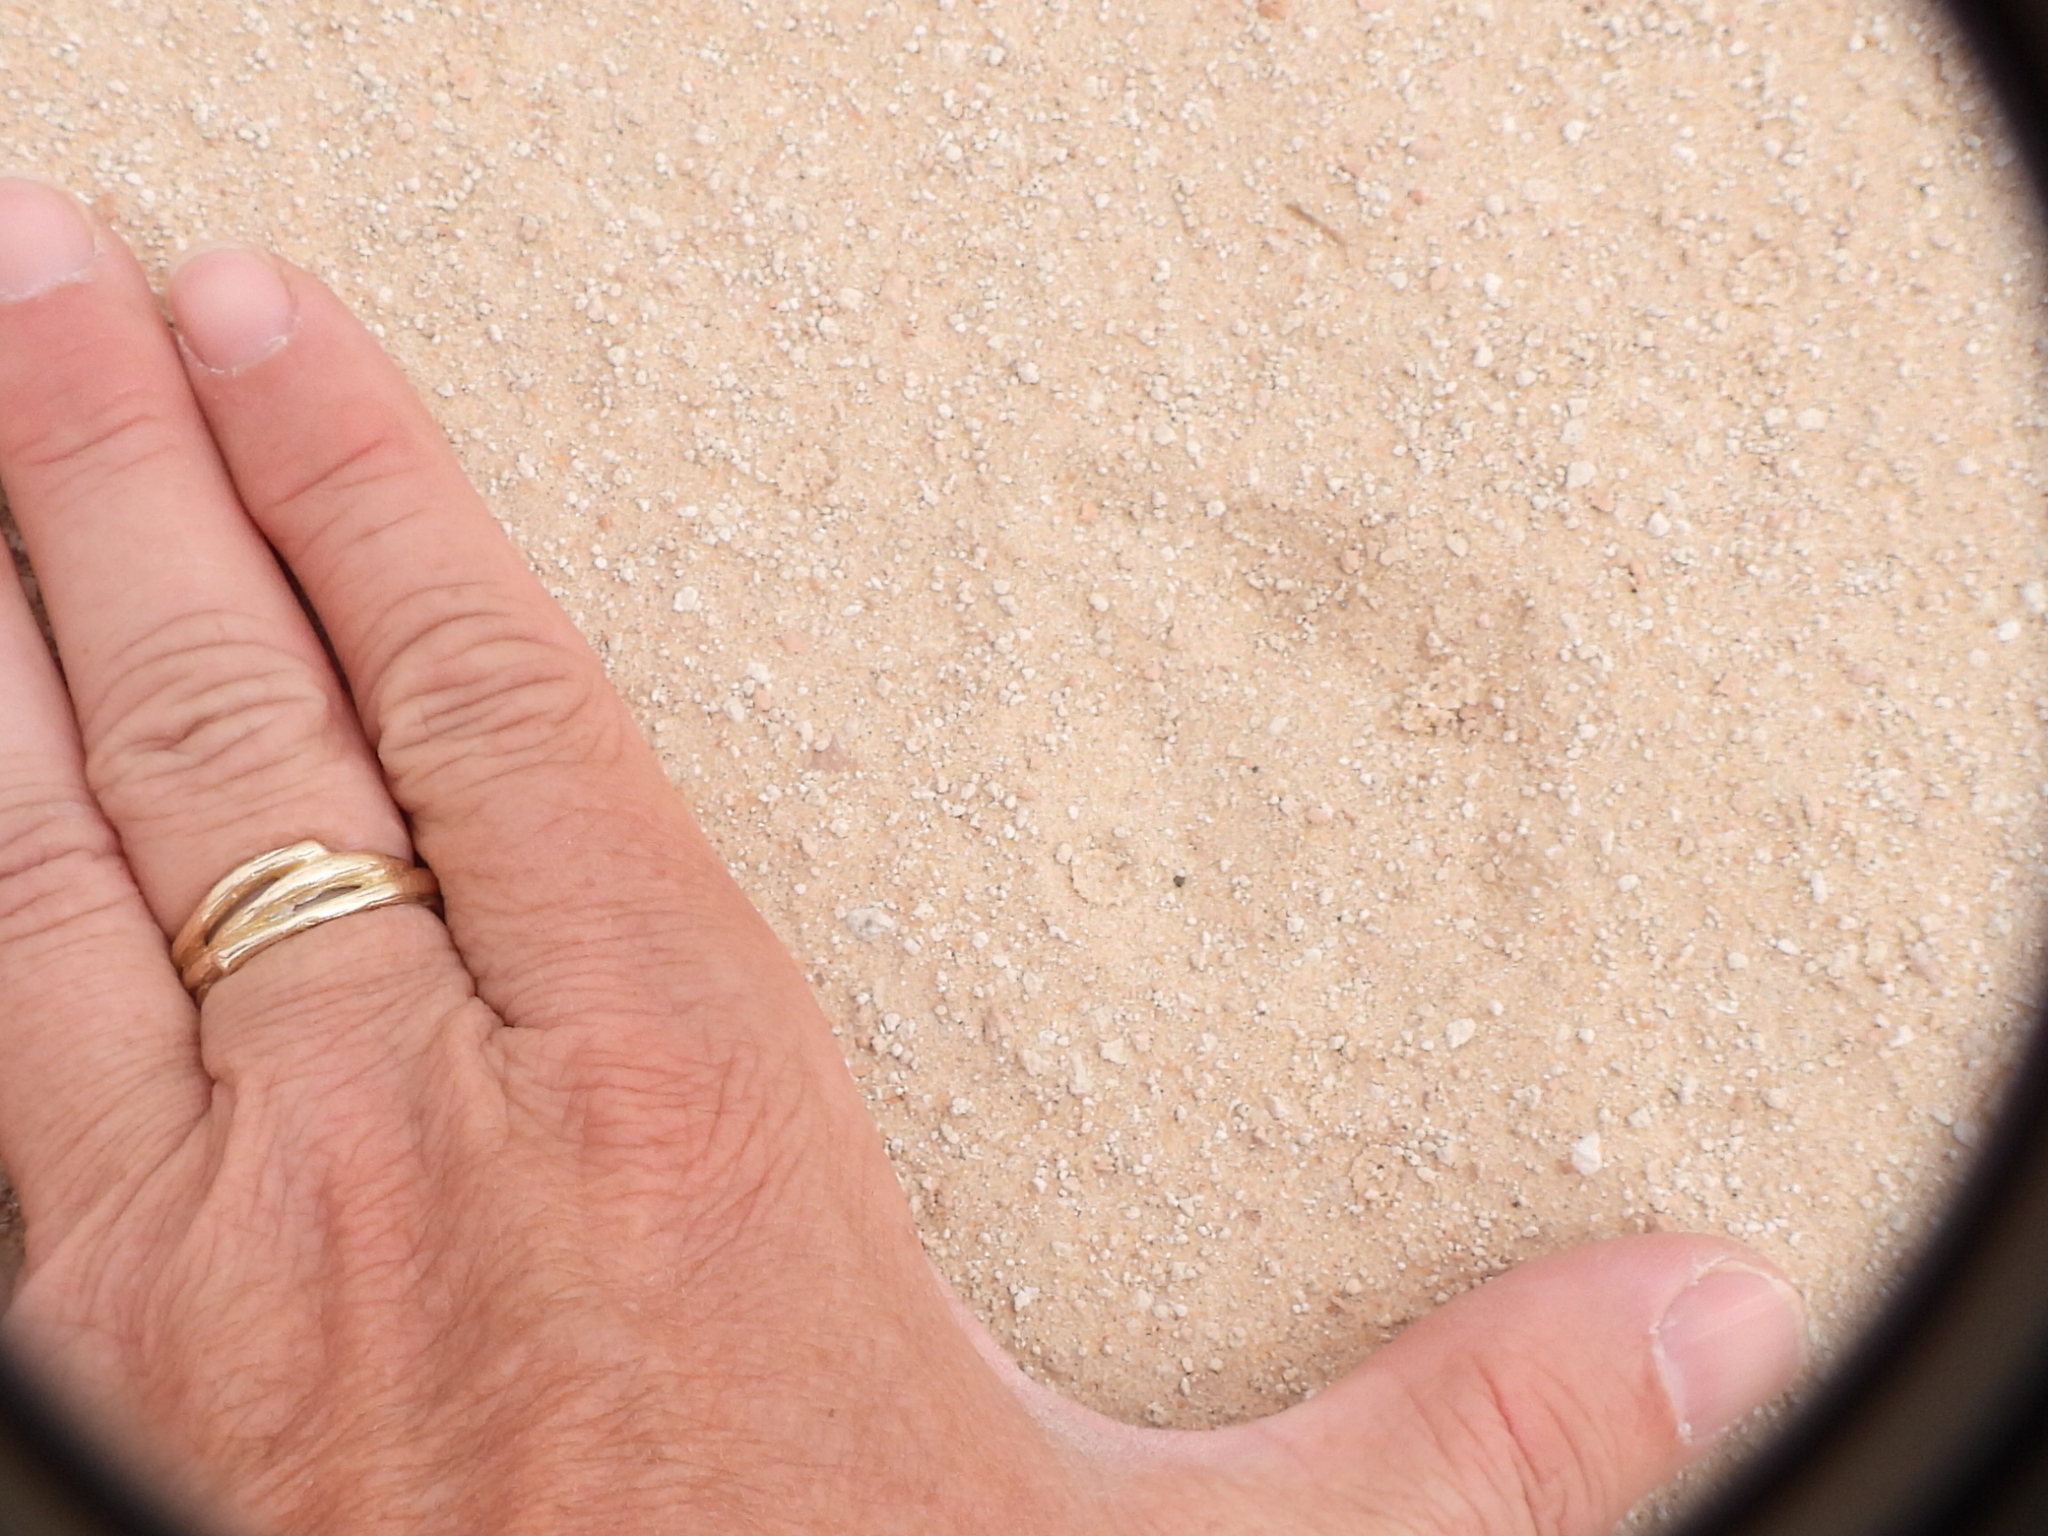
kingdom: Animalia
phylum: Chordata
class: Mammalia
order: Carnivora
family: Canidae
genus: Vulpes
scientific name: Vulpes vulpes
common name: Red fox
